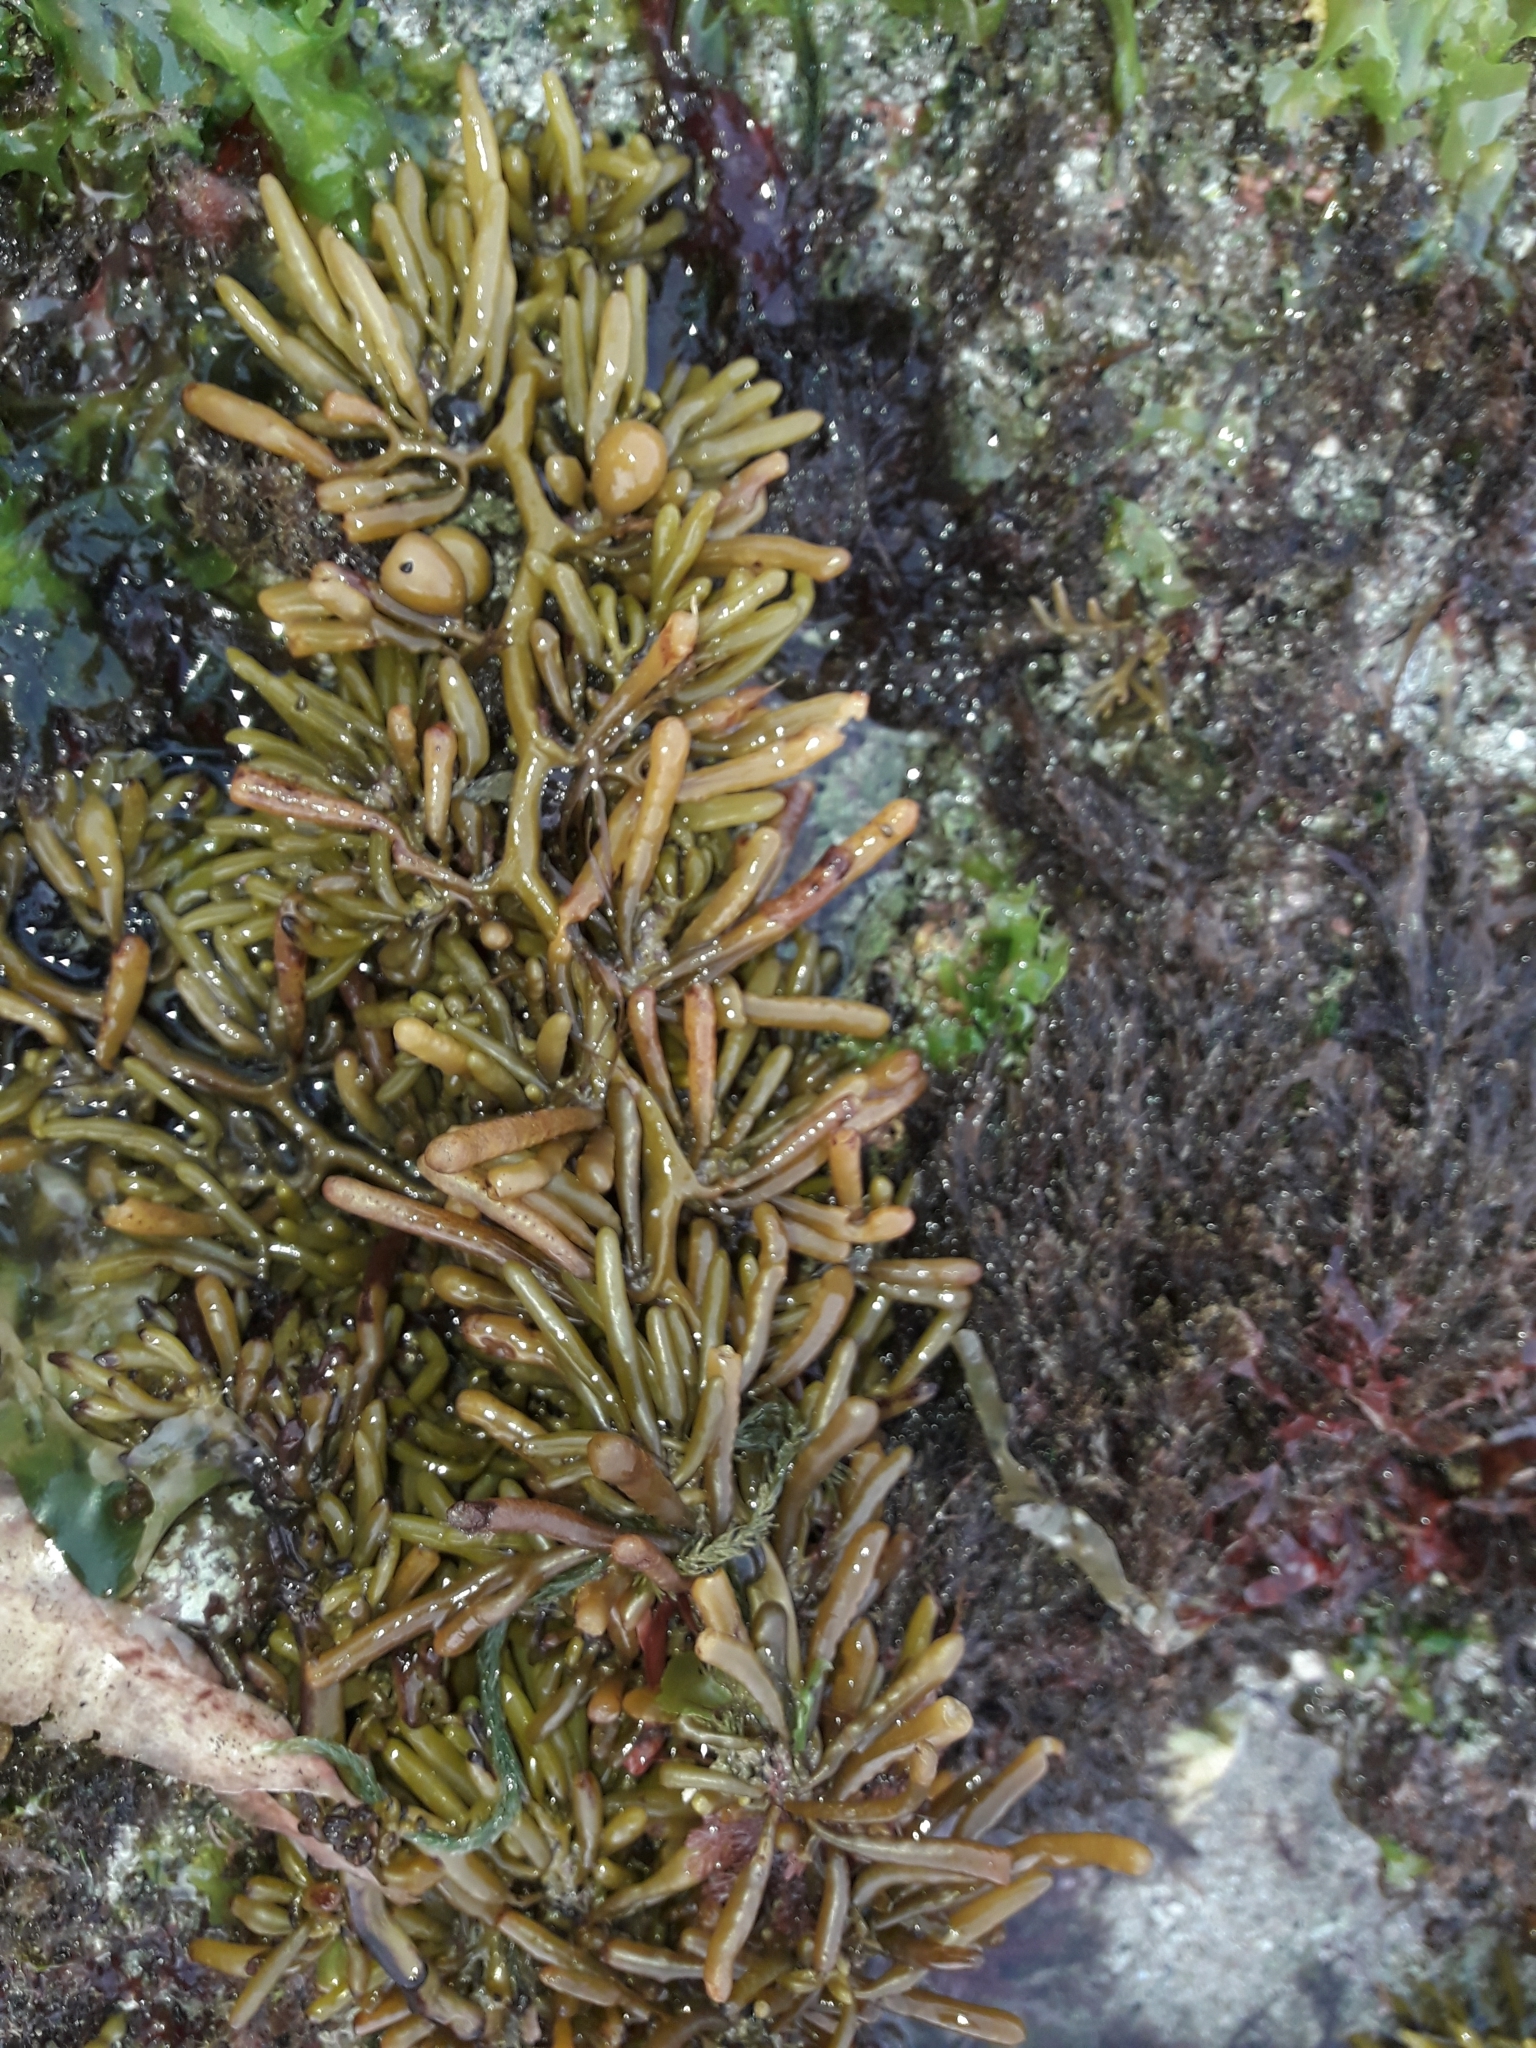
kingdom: Chromista
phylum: Ochrophyta
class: Phaeophyceae
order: Fucales
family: Sargassaceae
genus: Cystophora
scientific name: Cystophora torulosa
